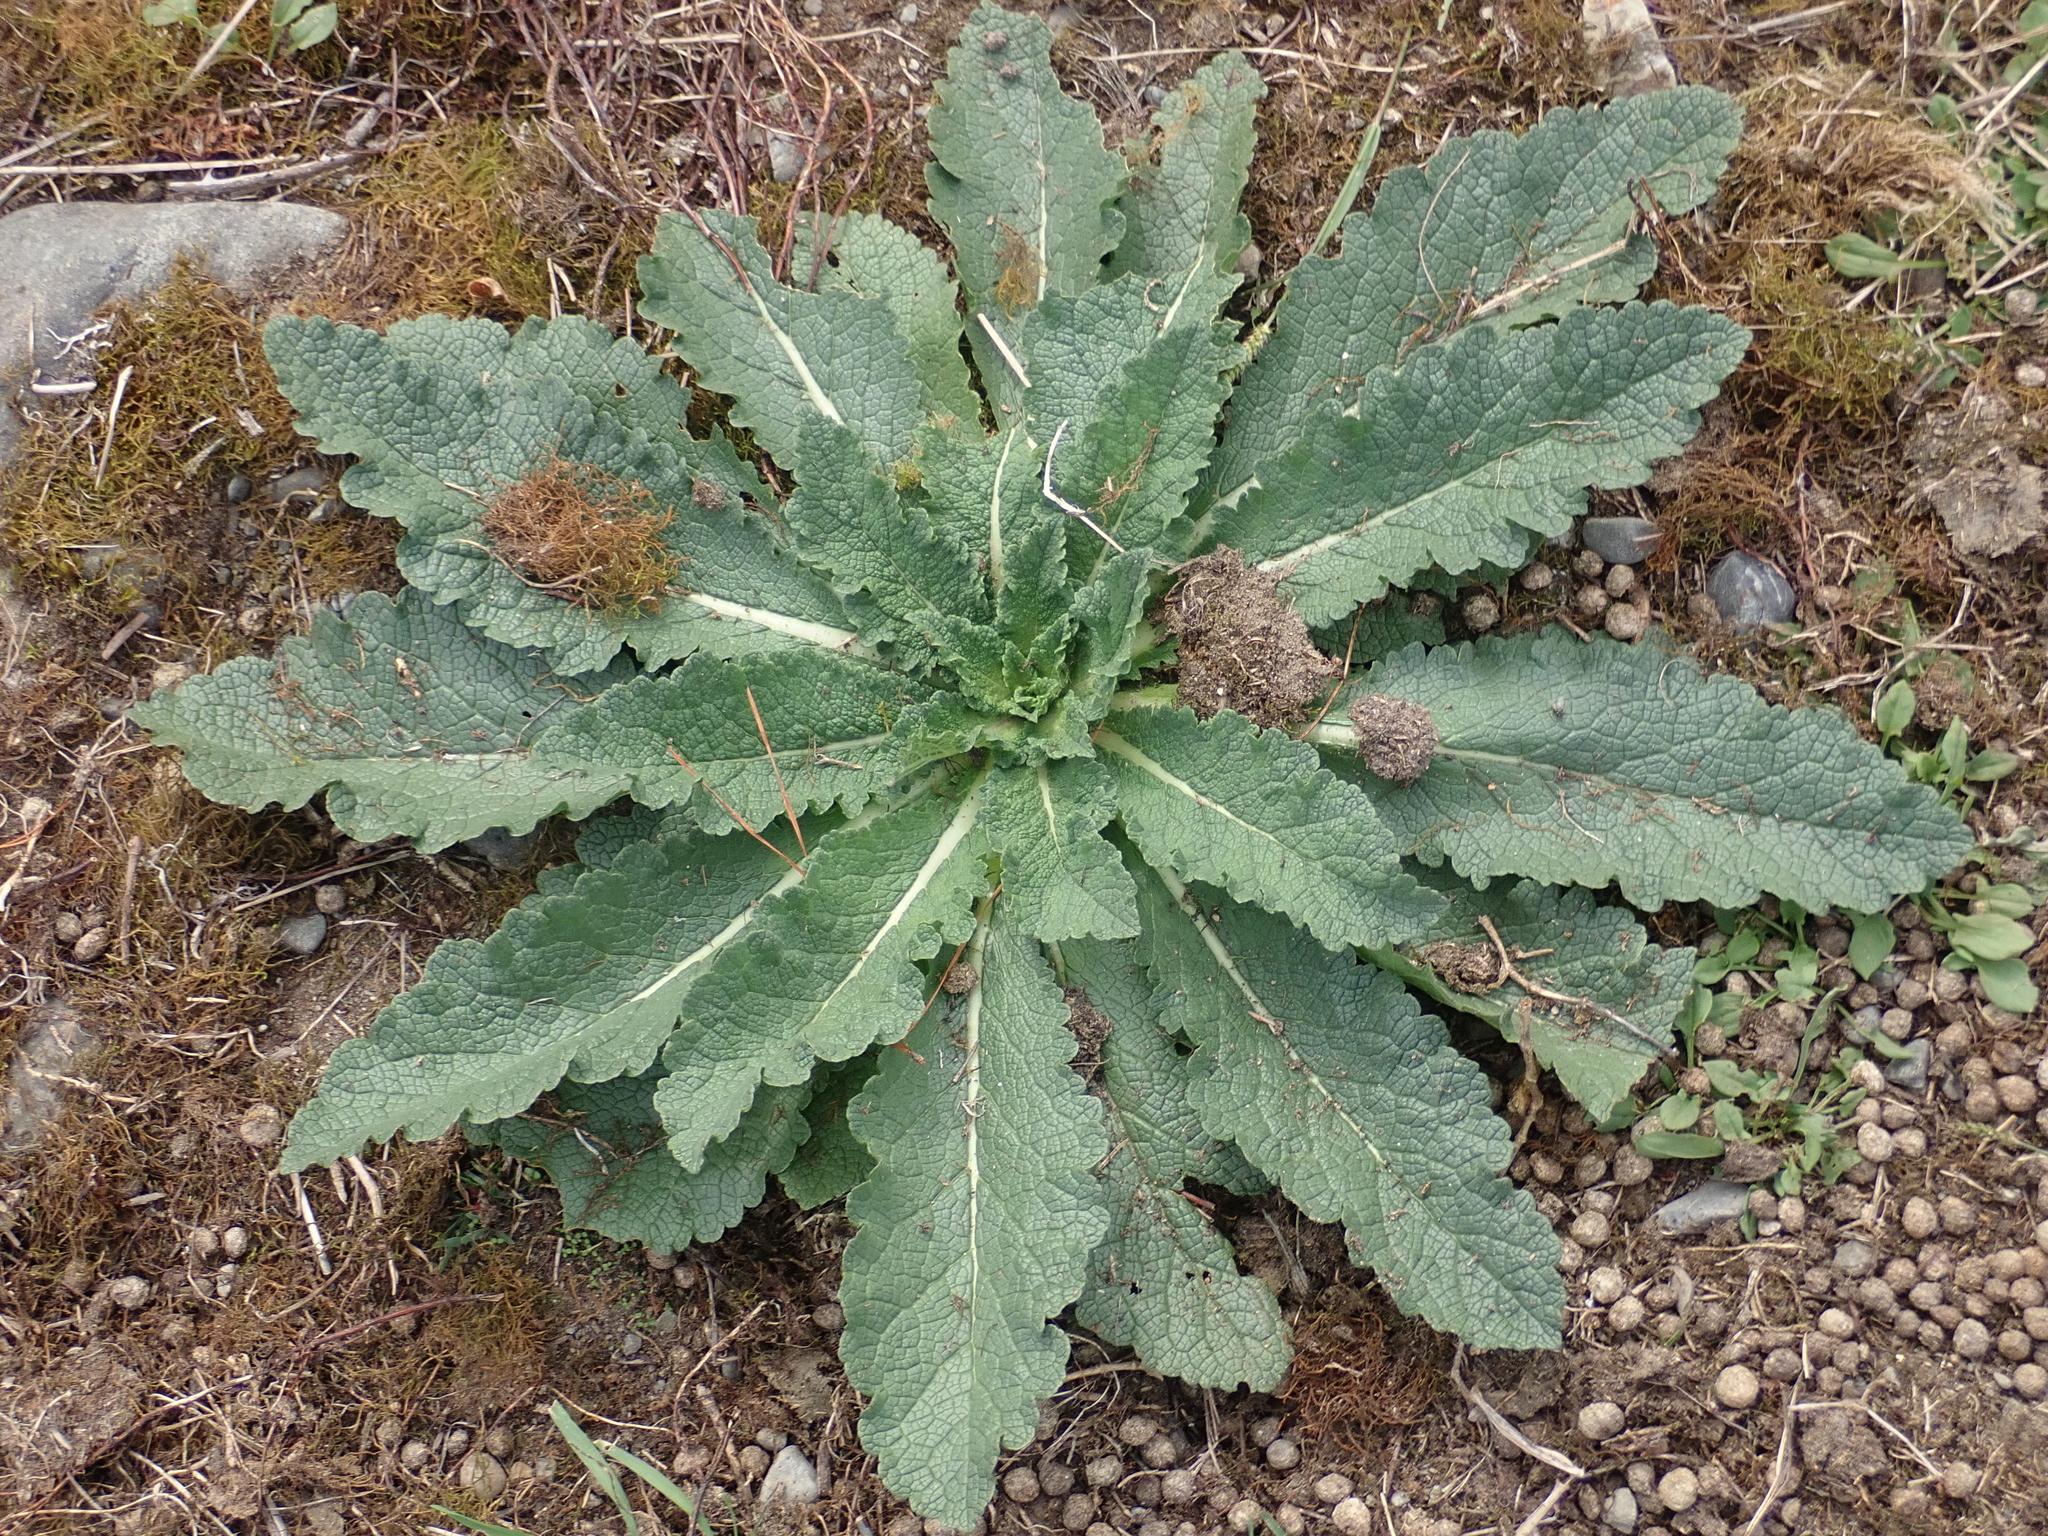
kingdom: Plantae
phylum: Tracheophyta
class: Magnoliopsida
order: Lamiales
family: Scrophulariaceae
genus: Verbascum
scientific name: Verbascum virgatum
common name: Twiggy mullein
